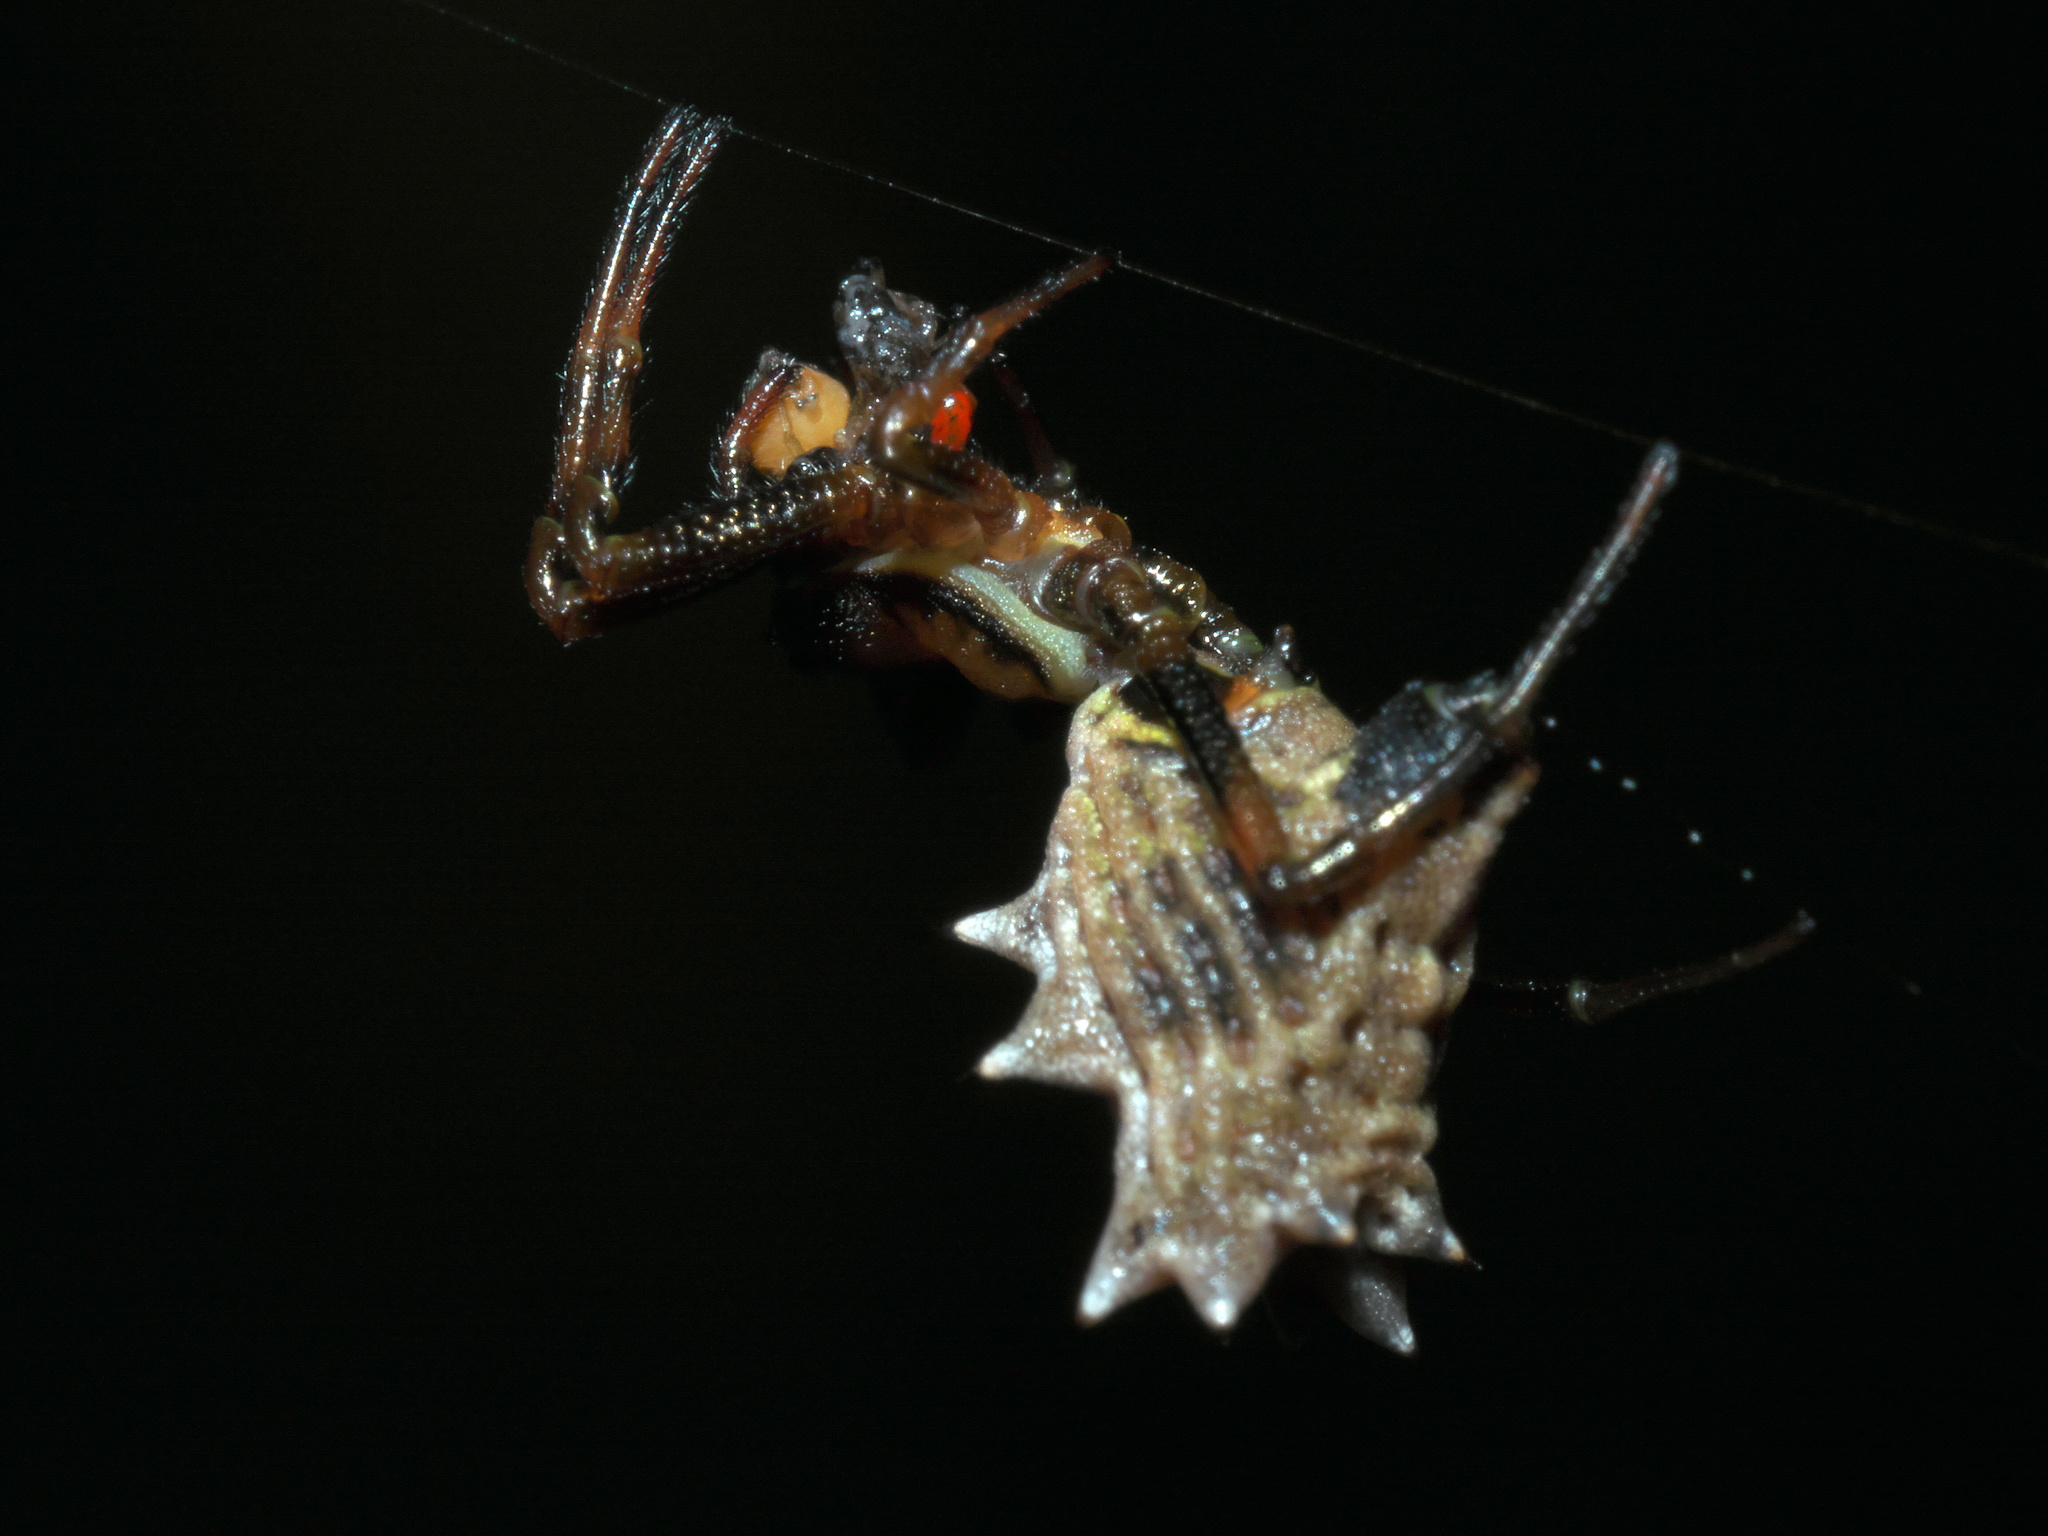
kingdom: Animalia
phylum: Arthropoda
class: Arachnida
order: Araneae
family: Araneidae
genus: Micrathena
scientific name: Micrathena gracilis
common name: Orb weavers
